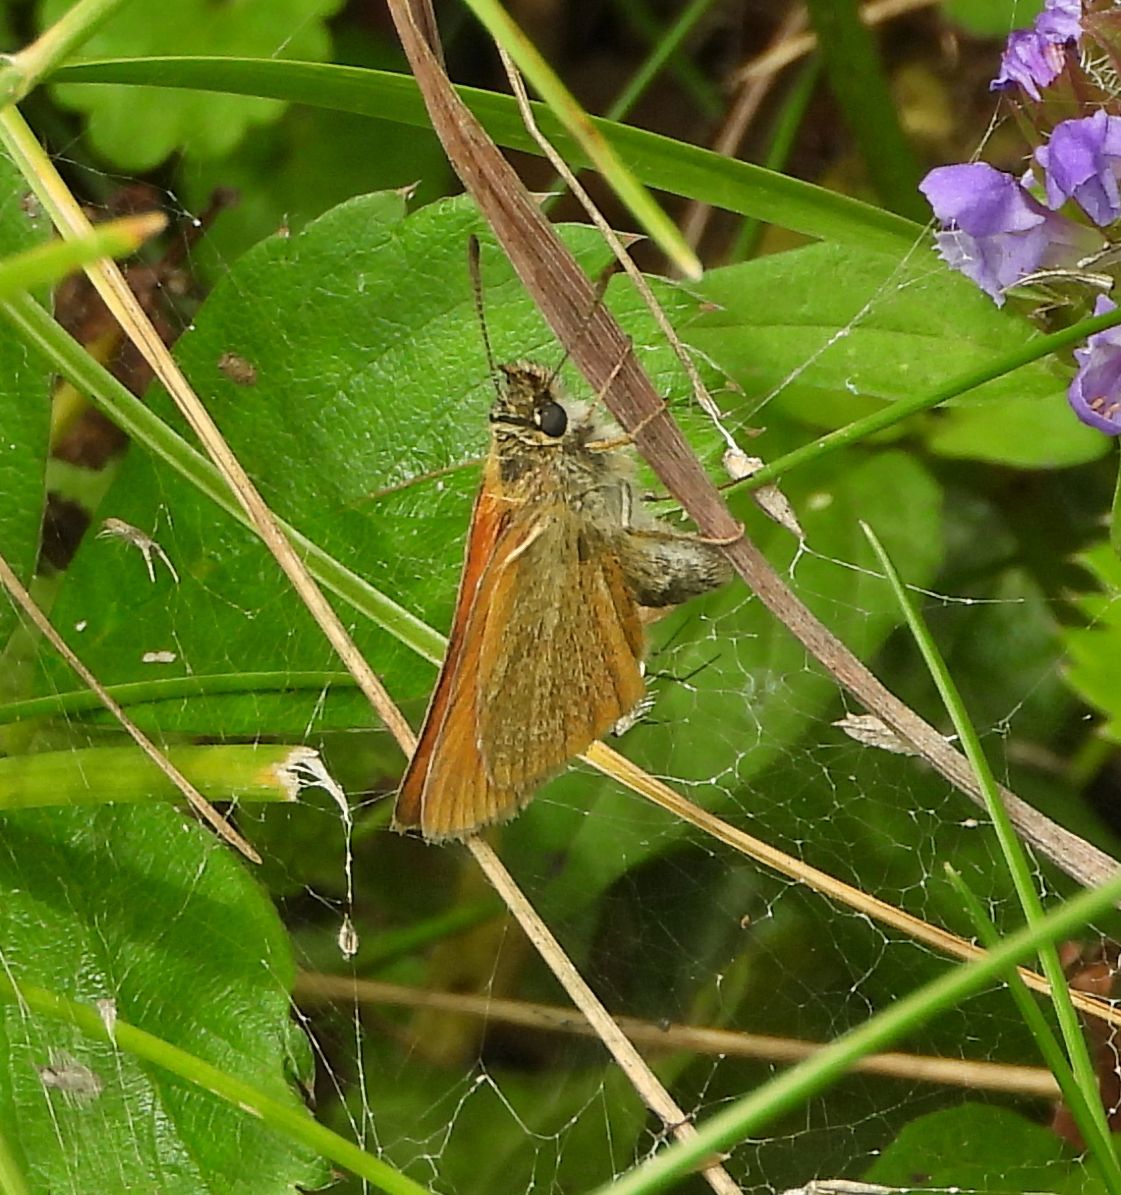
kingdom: Animalia
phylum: Arthropoda
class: Insecta
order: Lepidoptera
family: Hesperiidae
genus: Thymelicus
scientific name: Thymelicus lineola
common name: Essex skipper
